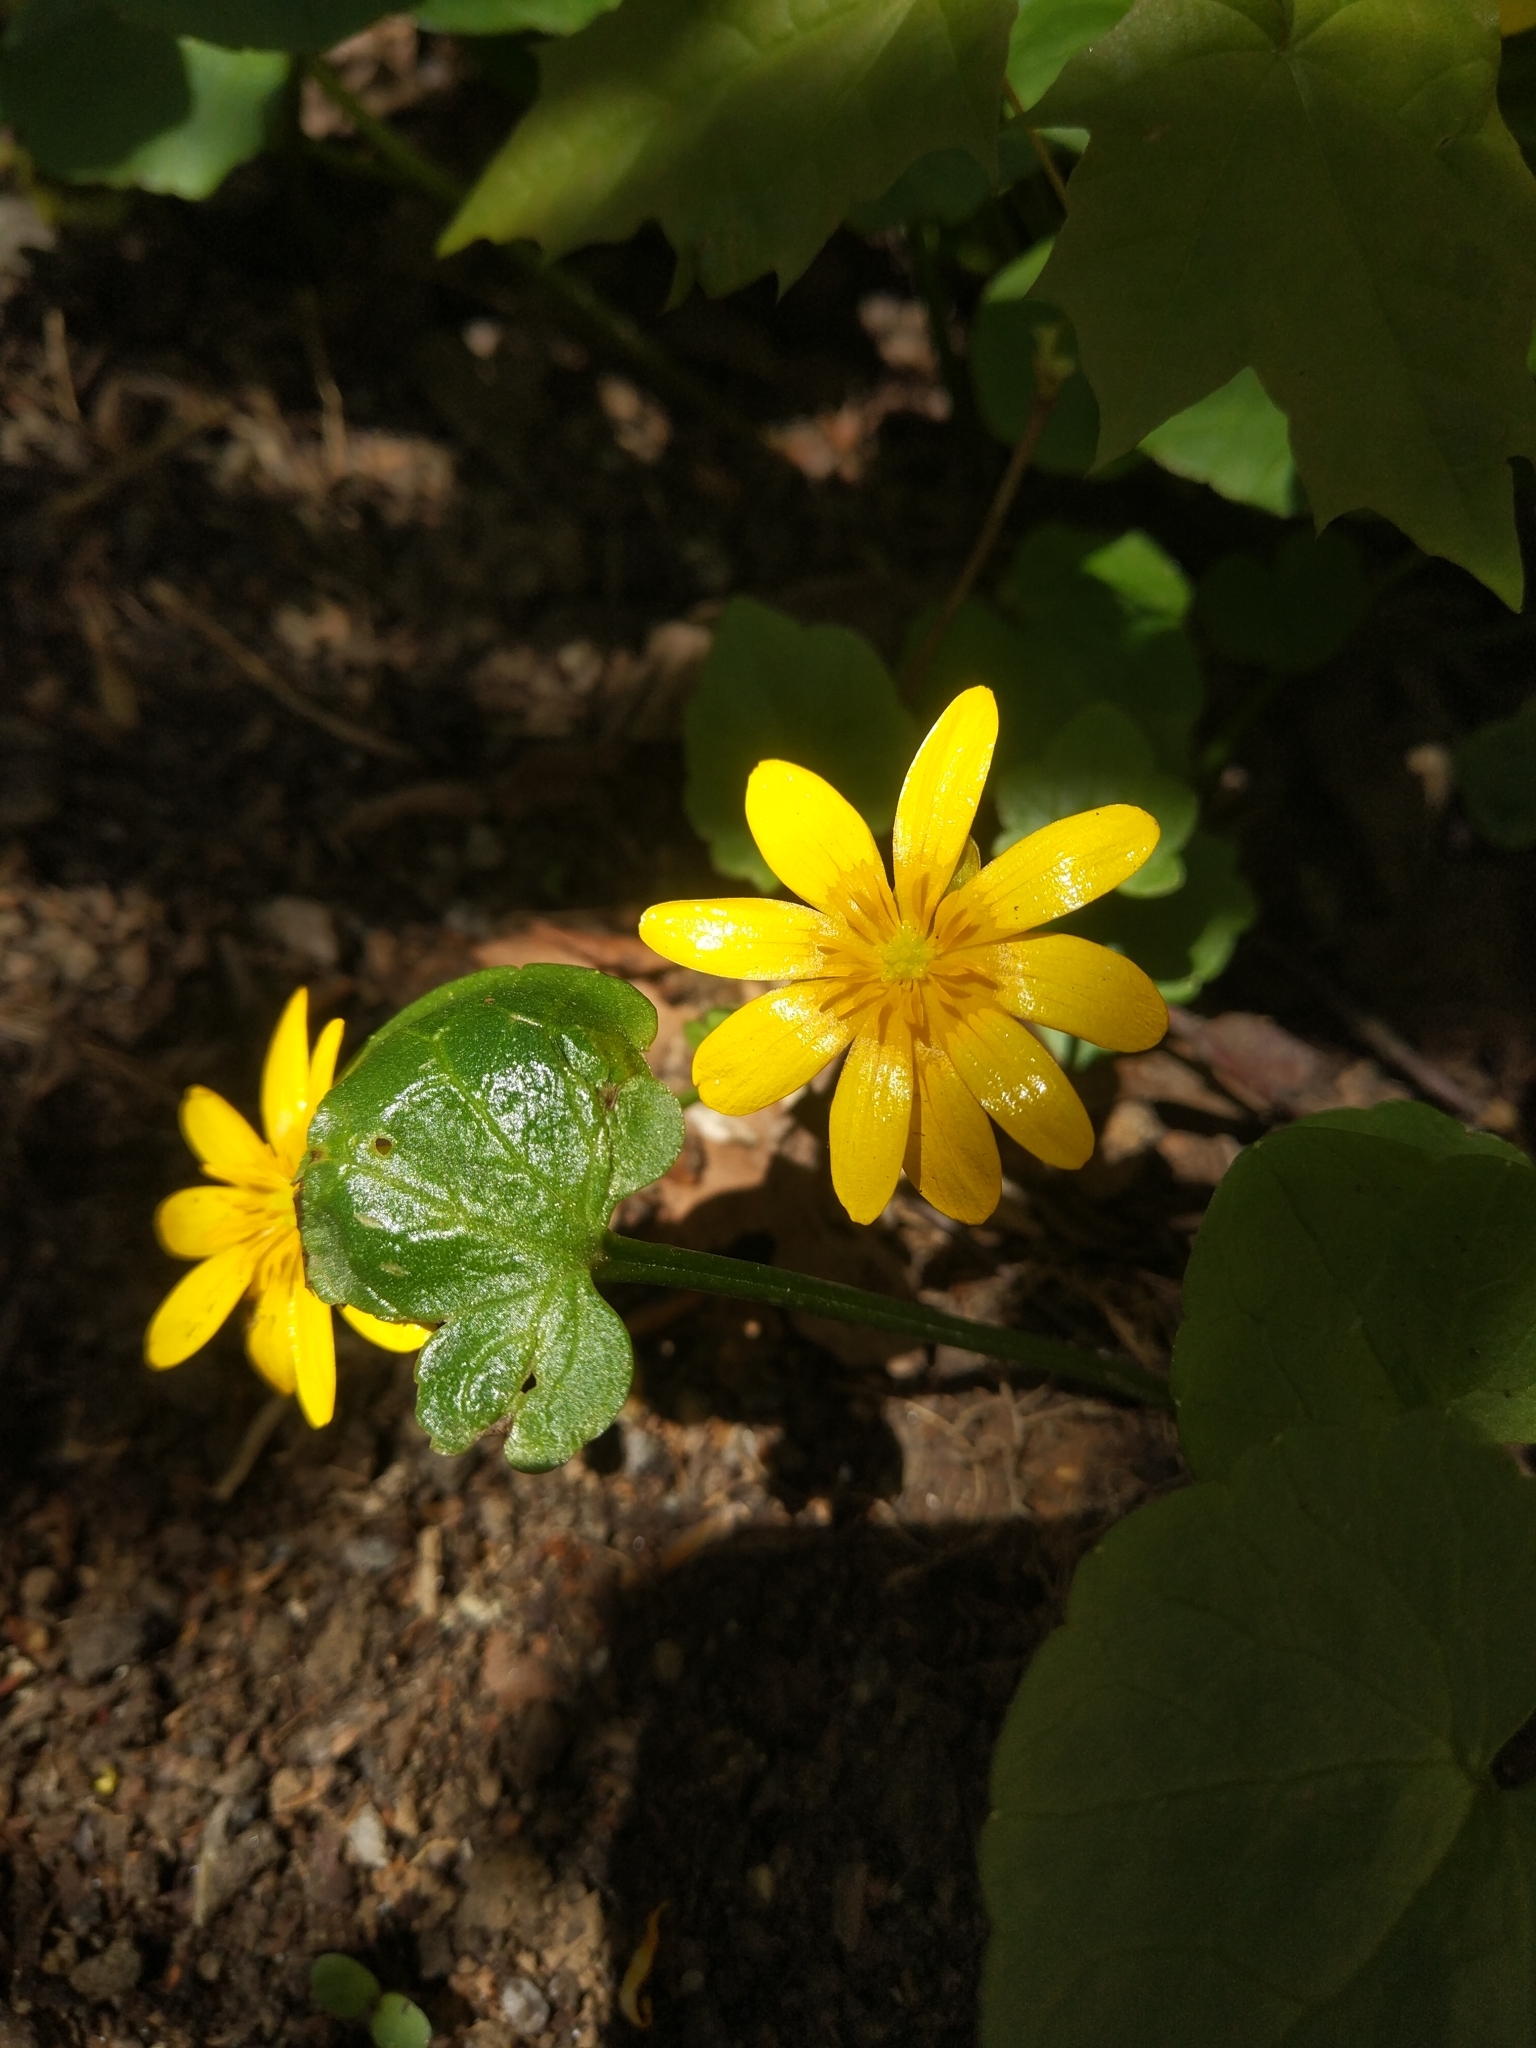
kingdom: Plantae
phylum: Tracheophyta
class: Magnoliopsida
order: Ranunculales
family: Ranunculaceae
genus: Ficaria
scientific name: Ficaria verna
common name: Lesser celandine
